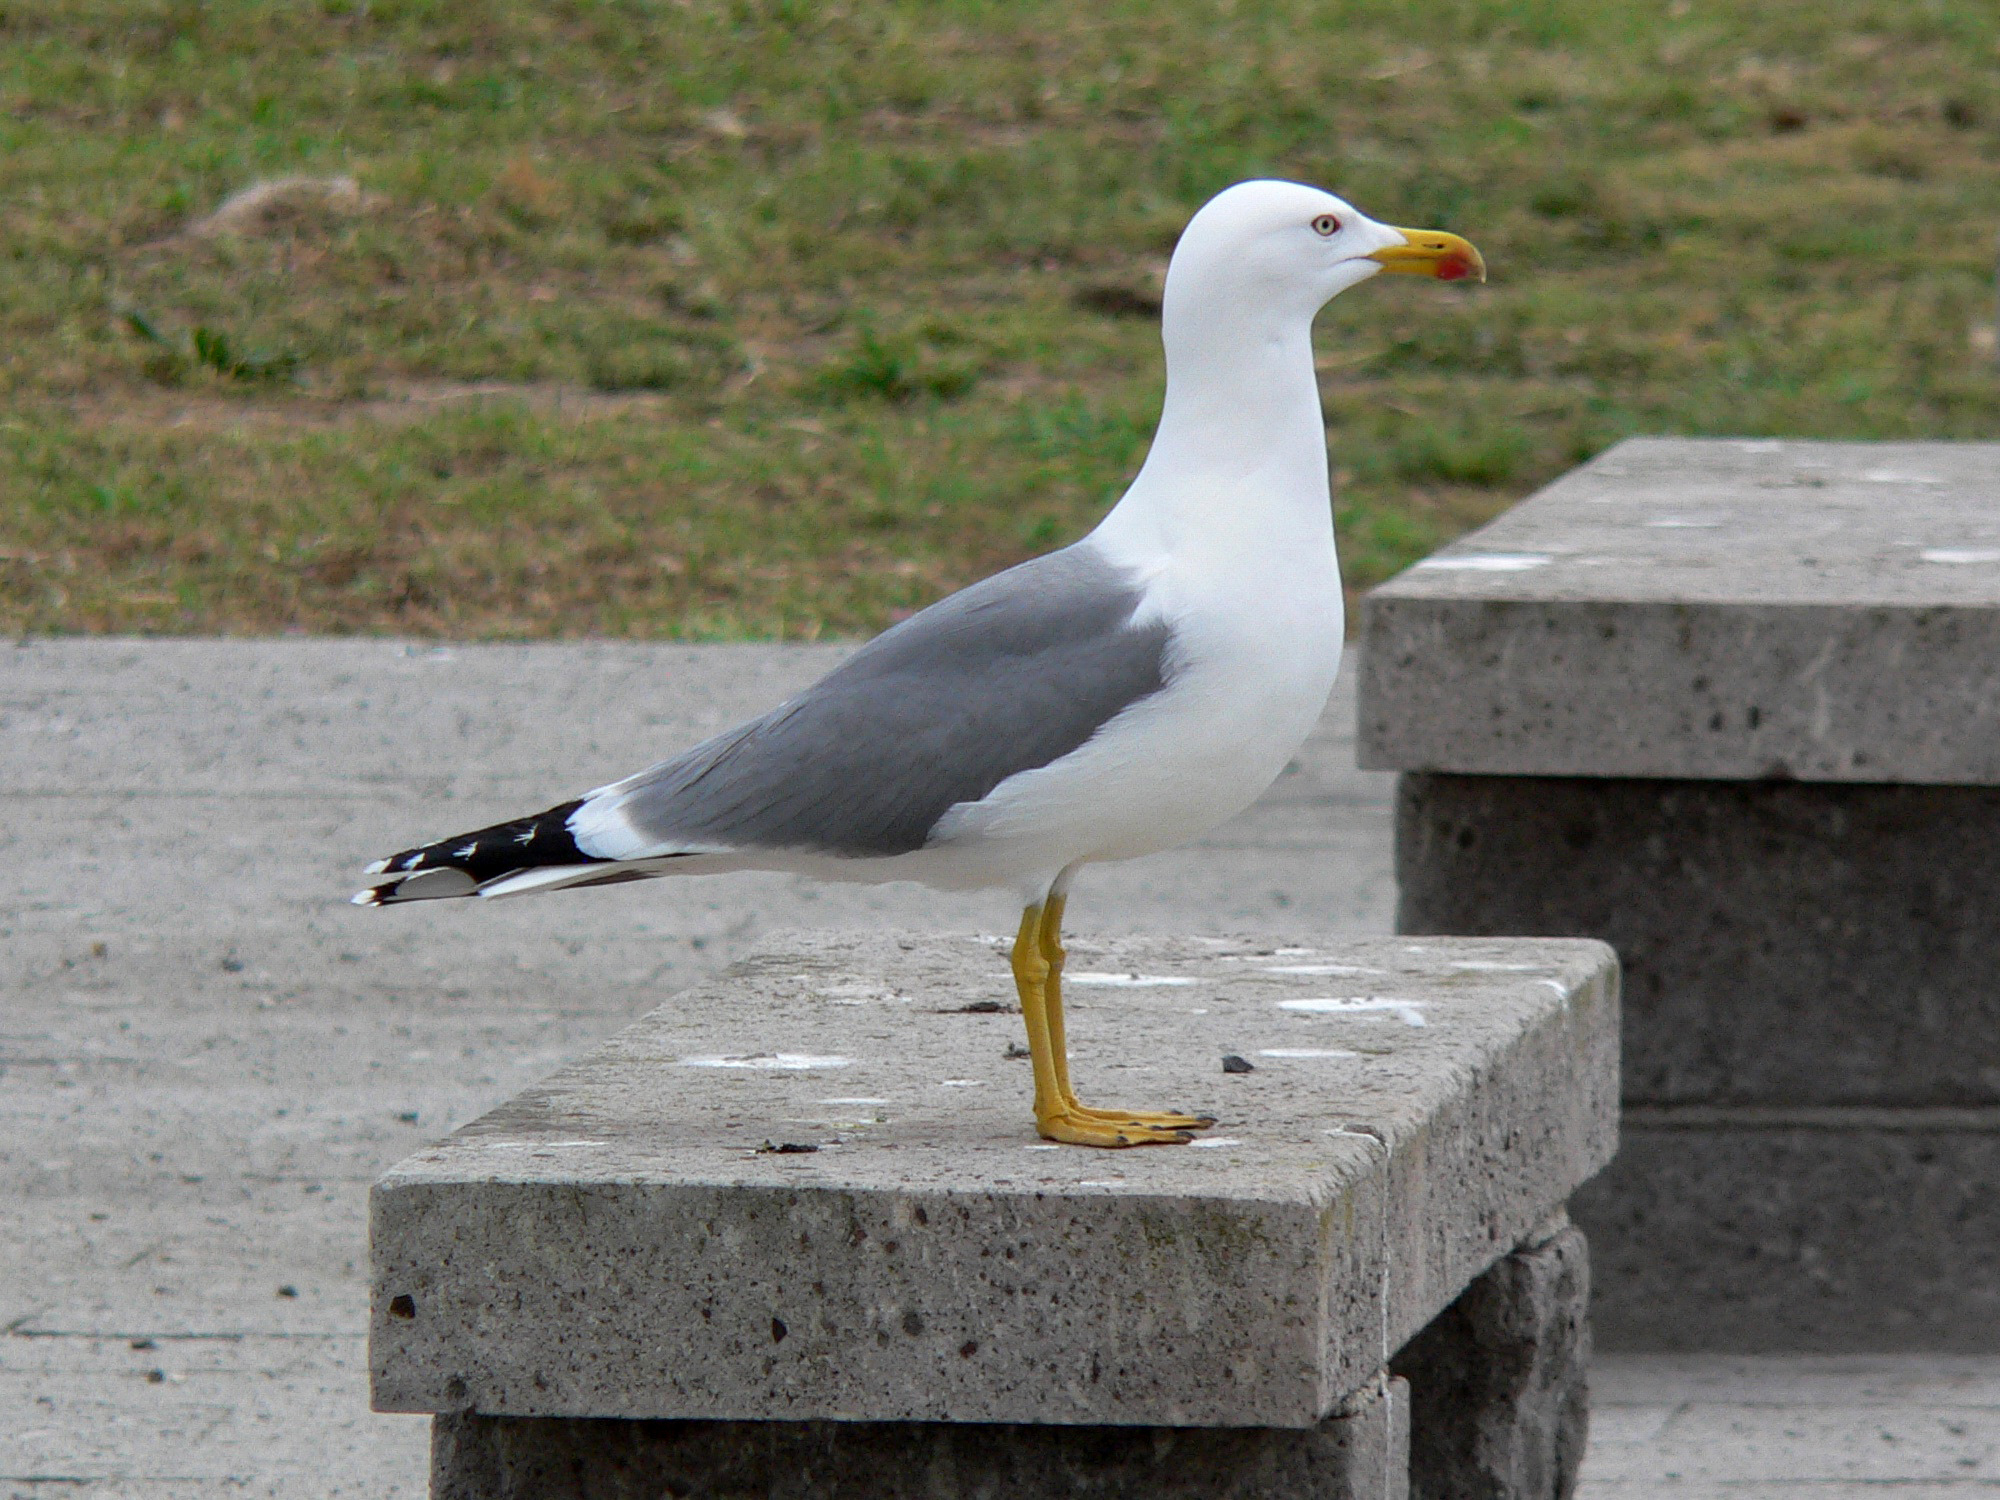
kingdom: Animalia
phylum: Chordata
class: Aves
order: Charadriiformes
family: Laridae
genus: Larus
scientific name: Larus michahellis
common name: Yellow-legged gull
